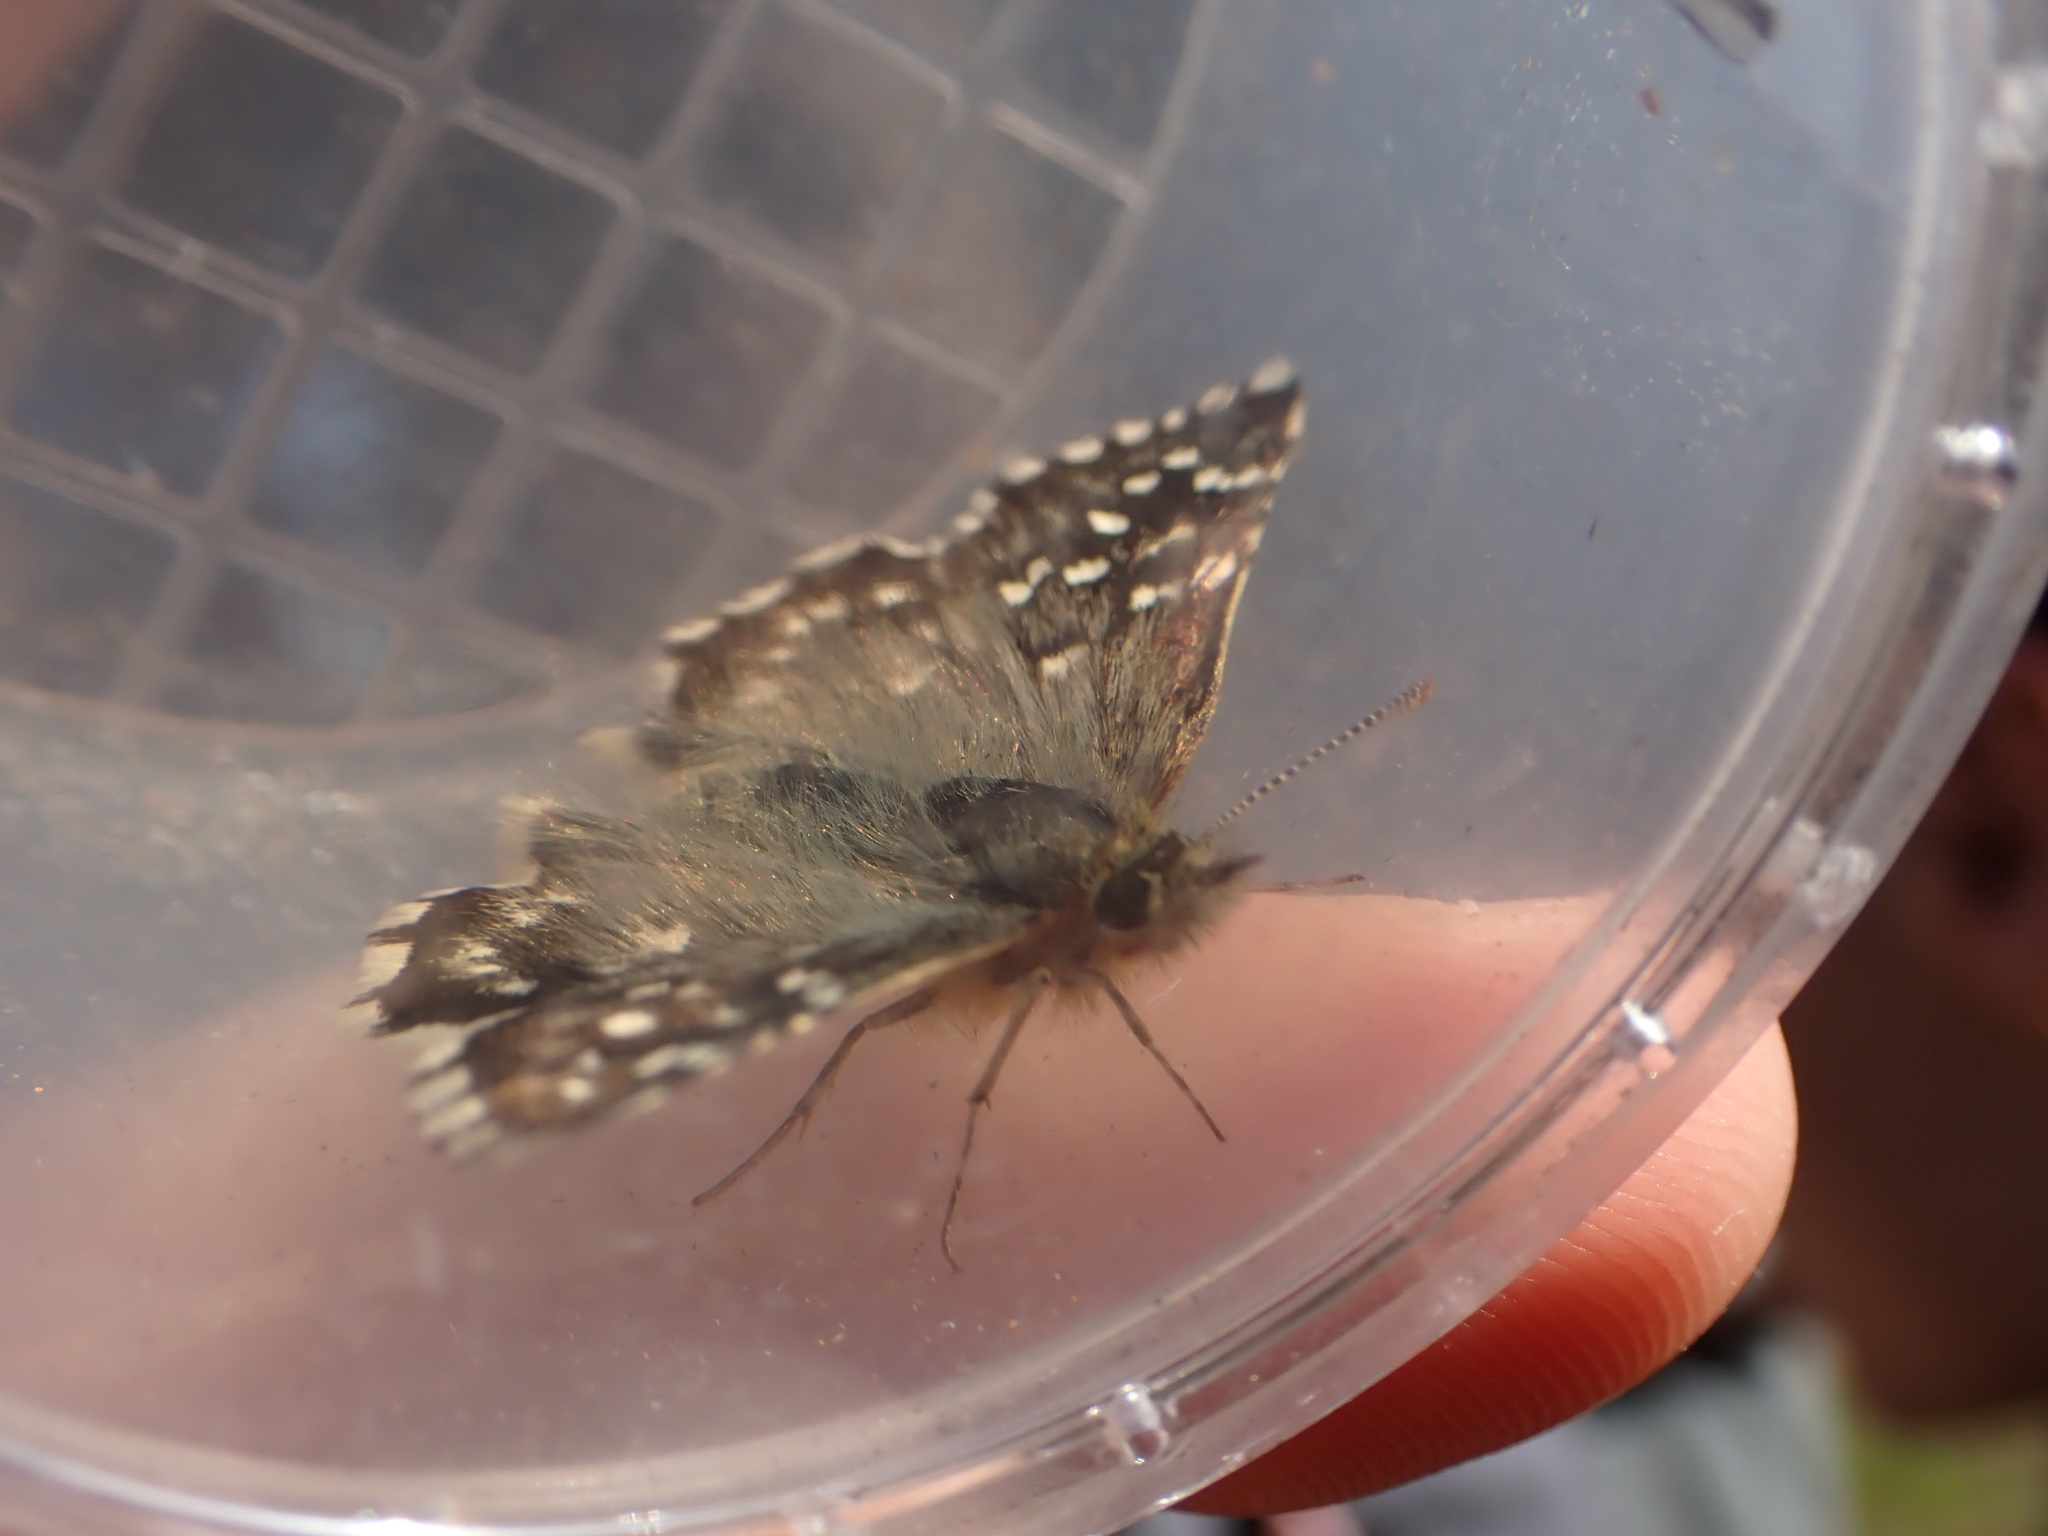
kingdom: Animalia
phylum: Arthropoda
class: Insecta
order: Lepidoptera
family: Hesperiidae
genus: Pyrgus
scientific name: Pyrgus malvoides
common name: Southern grizzled skipper
